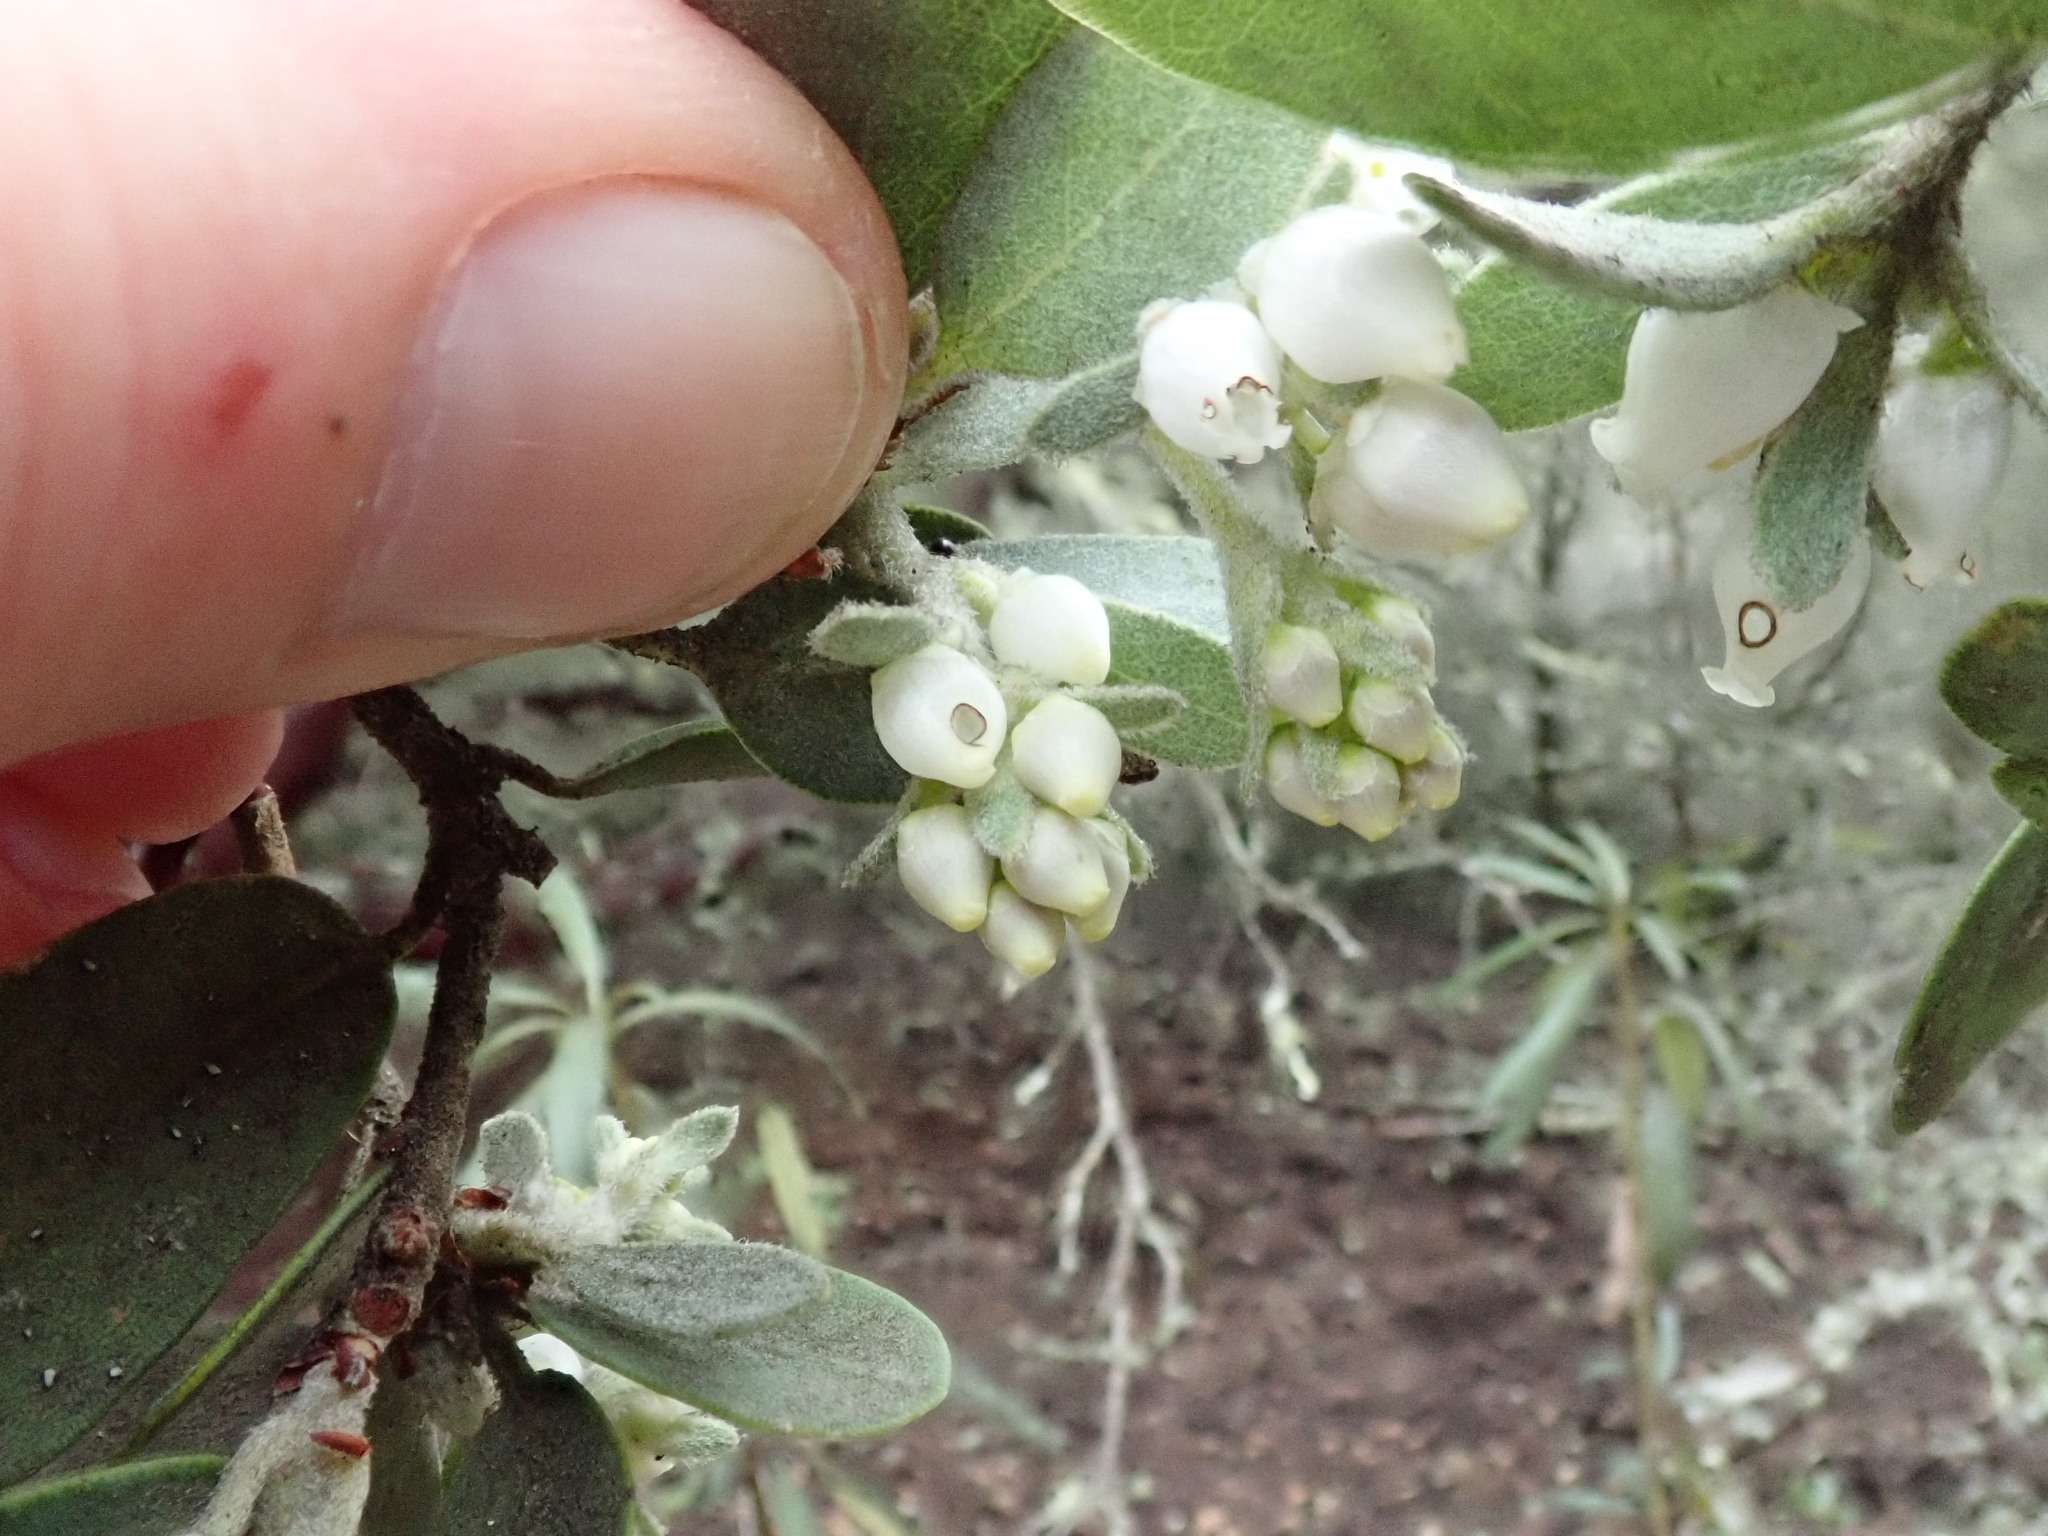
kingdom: Plantae
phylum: Tracheophyta
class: Magnoliopsida
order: Ericales
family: Ericaceae
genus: Arctostaphylos
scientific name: Arctostaphylos silvicola
